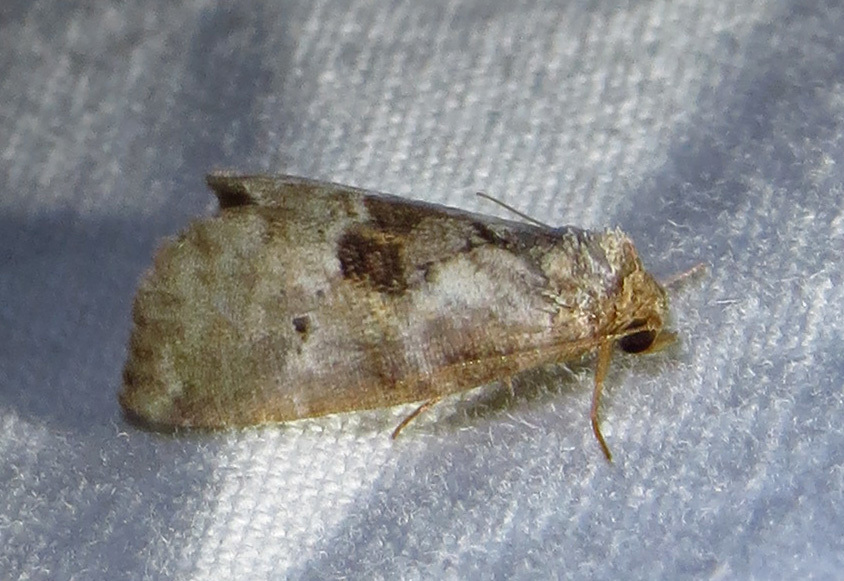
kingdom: Animalia
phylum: Arthropoda
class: Insecta
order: Lepidoptera
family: Erebidae
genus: Hyperstrotia
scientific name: Hyperstrotia secta
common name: Black-patched graylet
